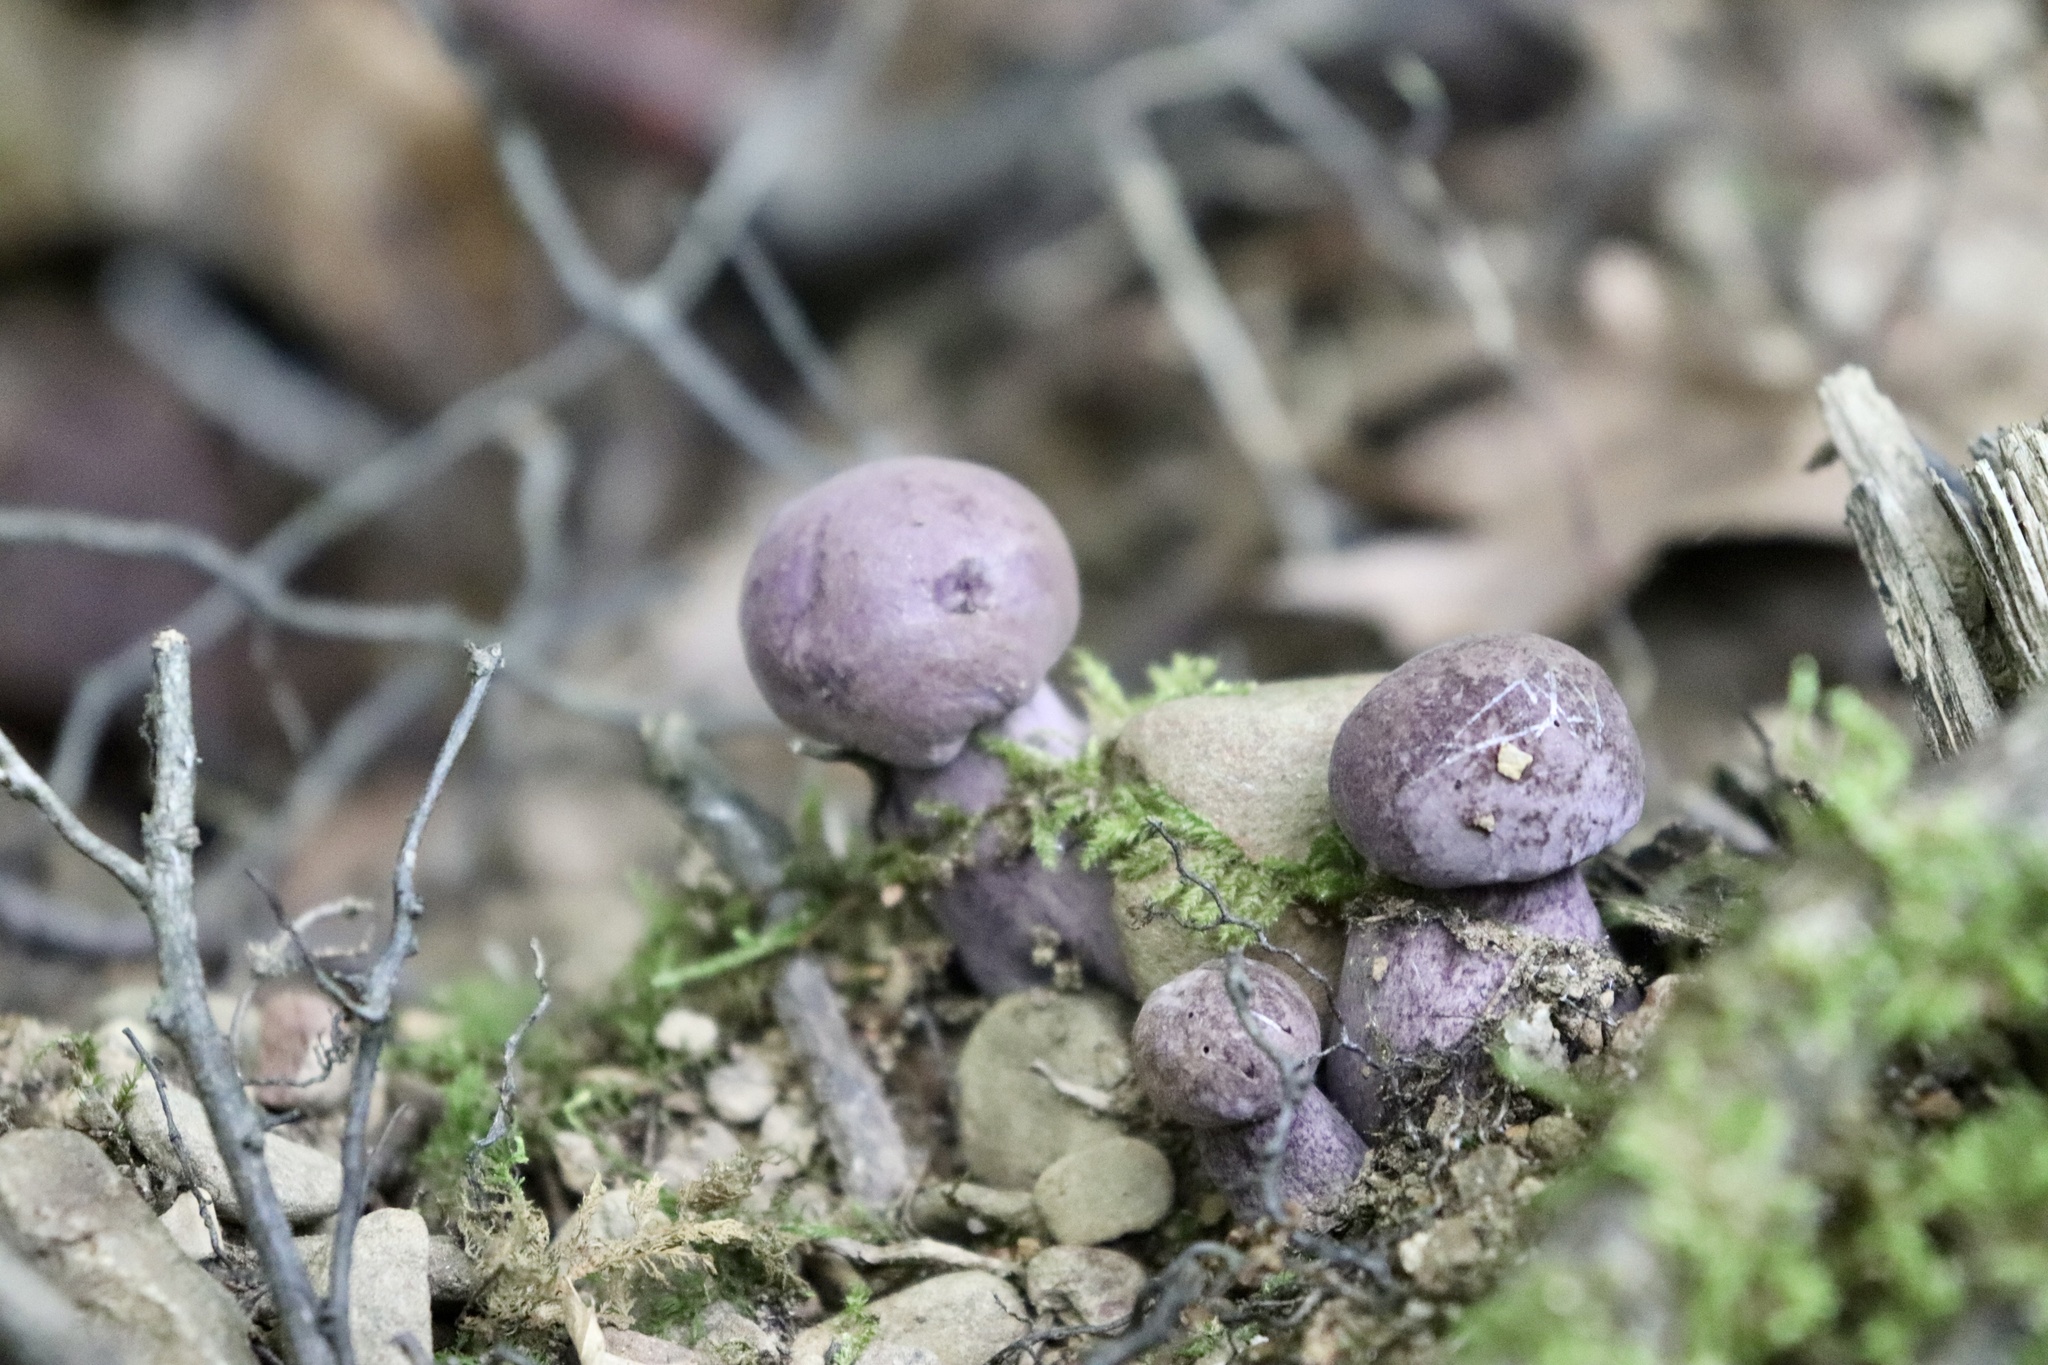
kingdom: Fungi
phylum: Basidiomycota
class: Agaricomycetes
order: Boletales
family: Boletaceae
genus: Tylopilus
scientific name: Tylopilus plumbeoviolaceus
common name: Violet gray bolete
